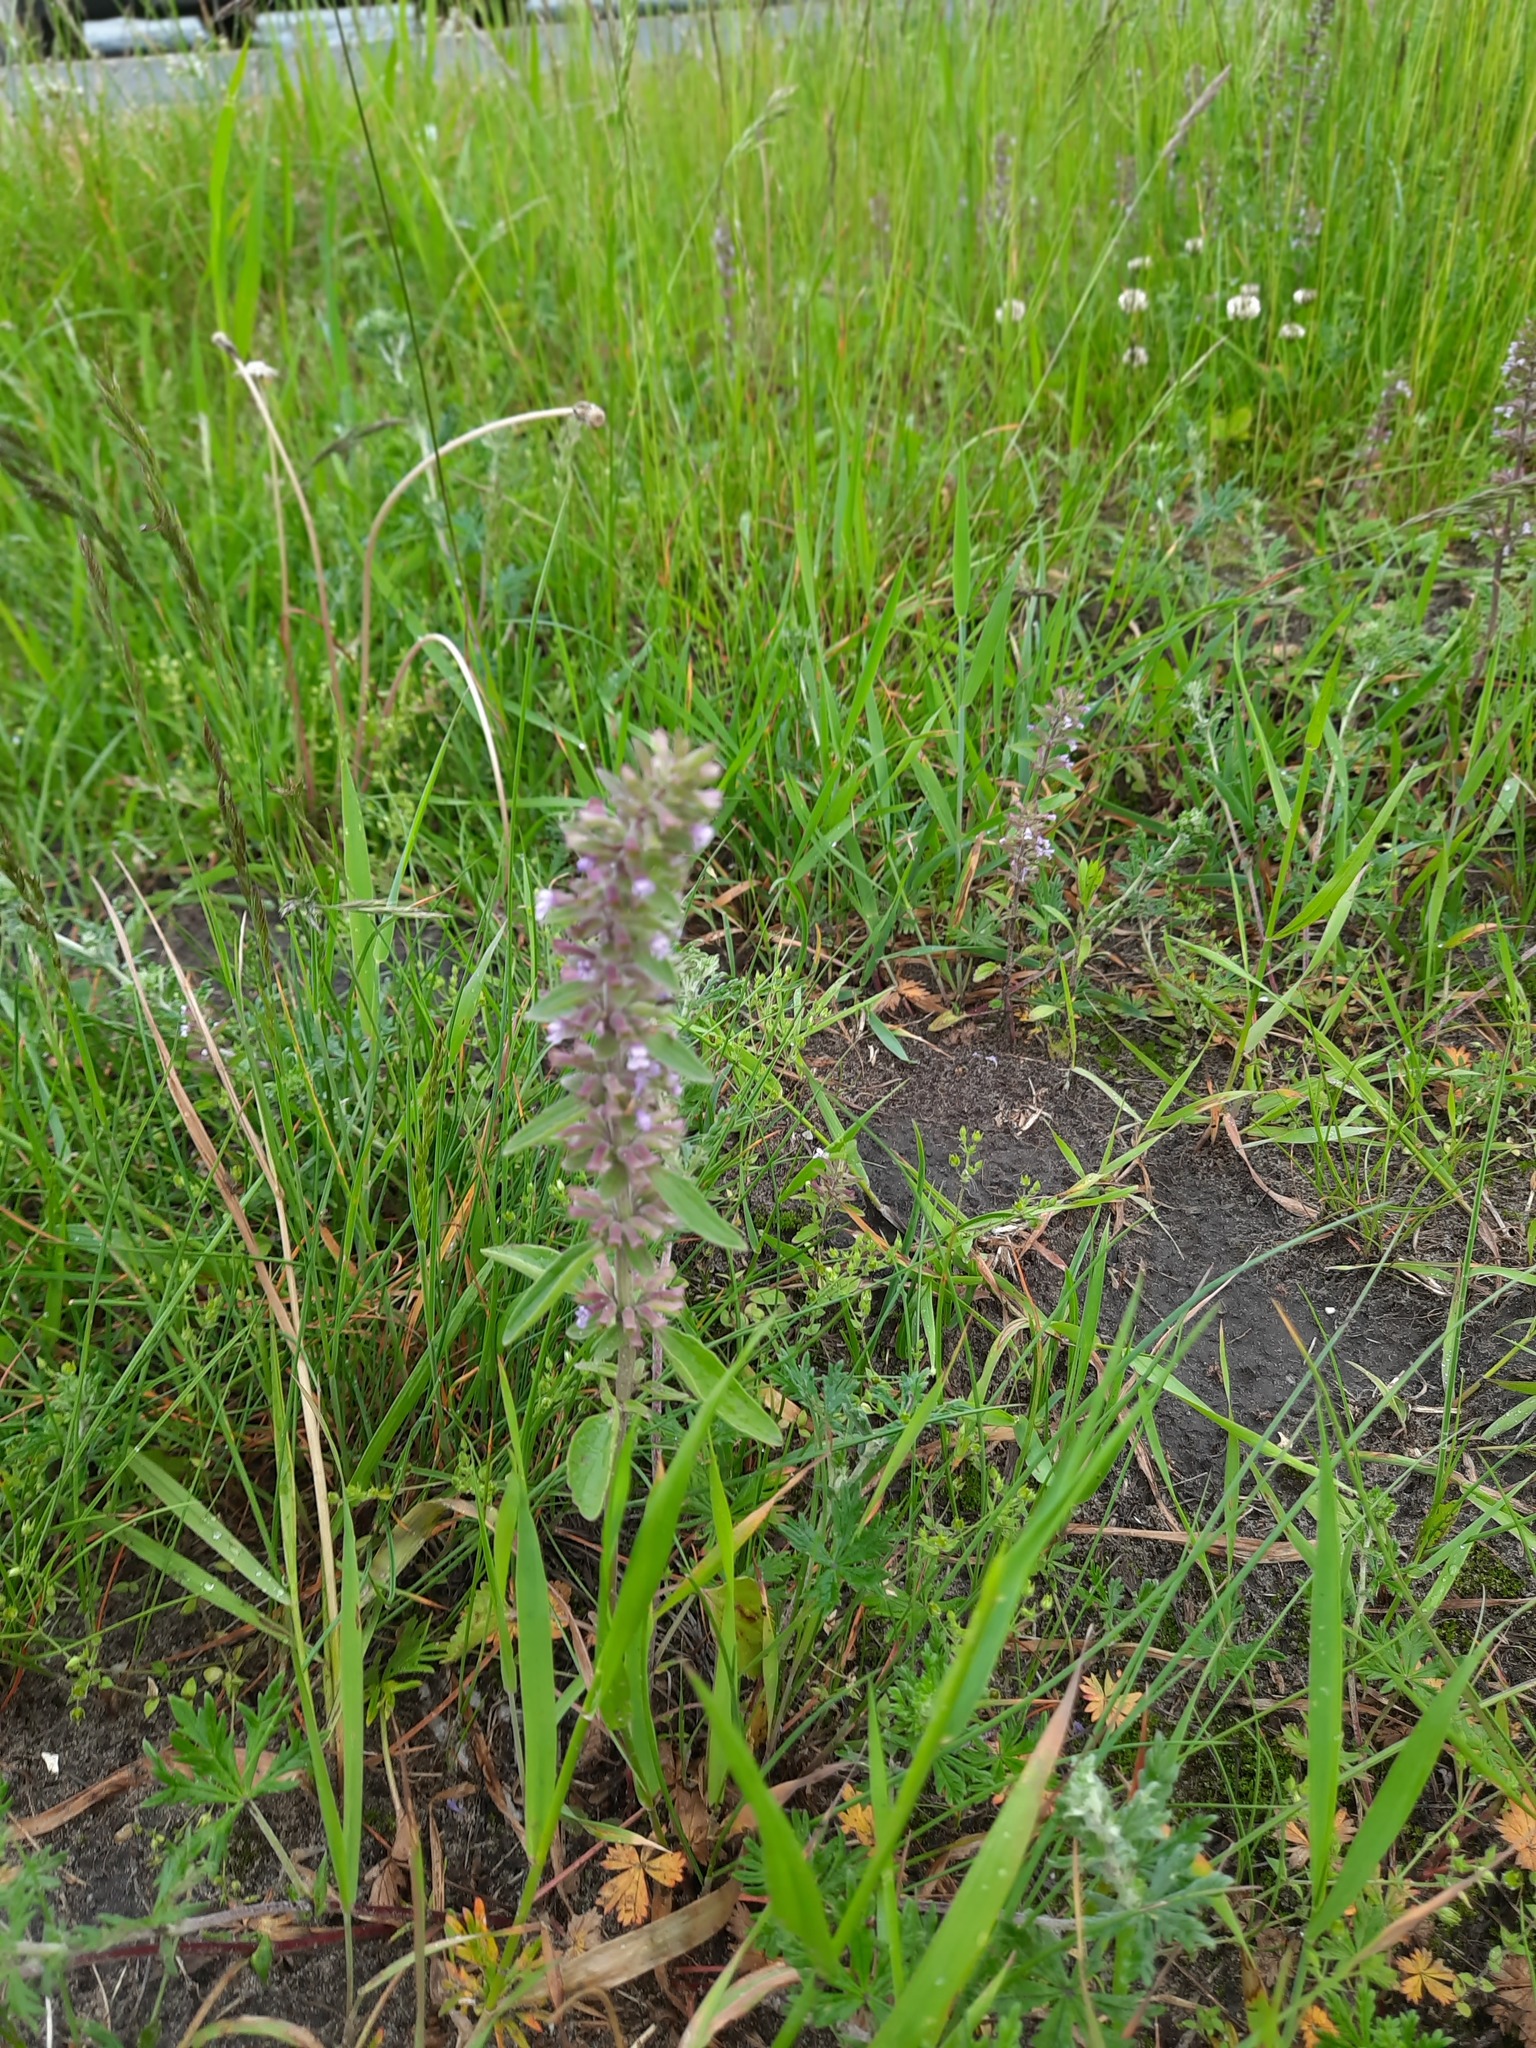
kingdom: Plantae
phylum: Tracheophyta
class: Magnoliopsida
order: Lamiales
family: Lamiaceae
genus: Dracocephalum
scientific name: Dracocephalum thymiflorum
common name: Thymeleaf dragonhead
